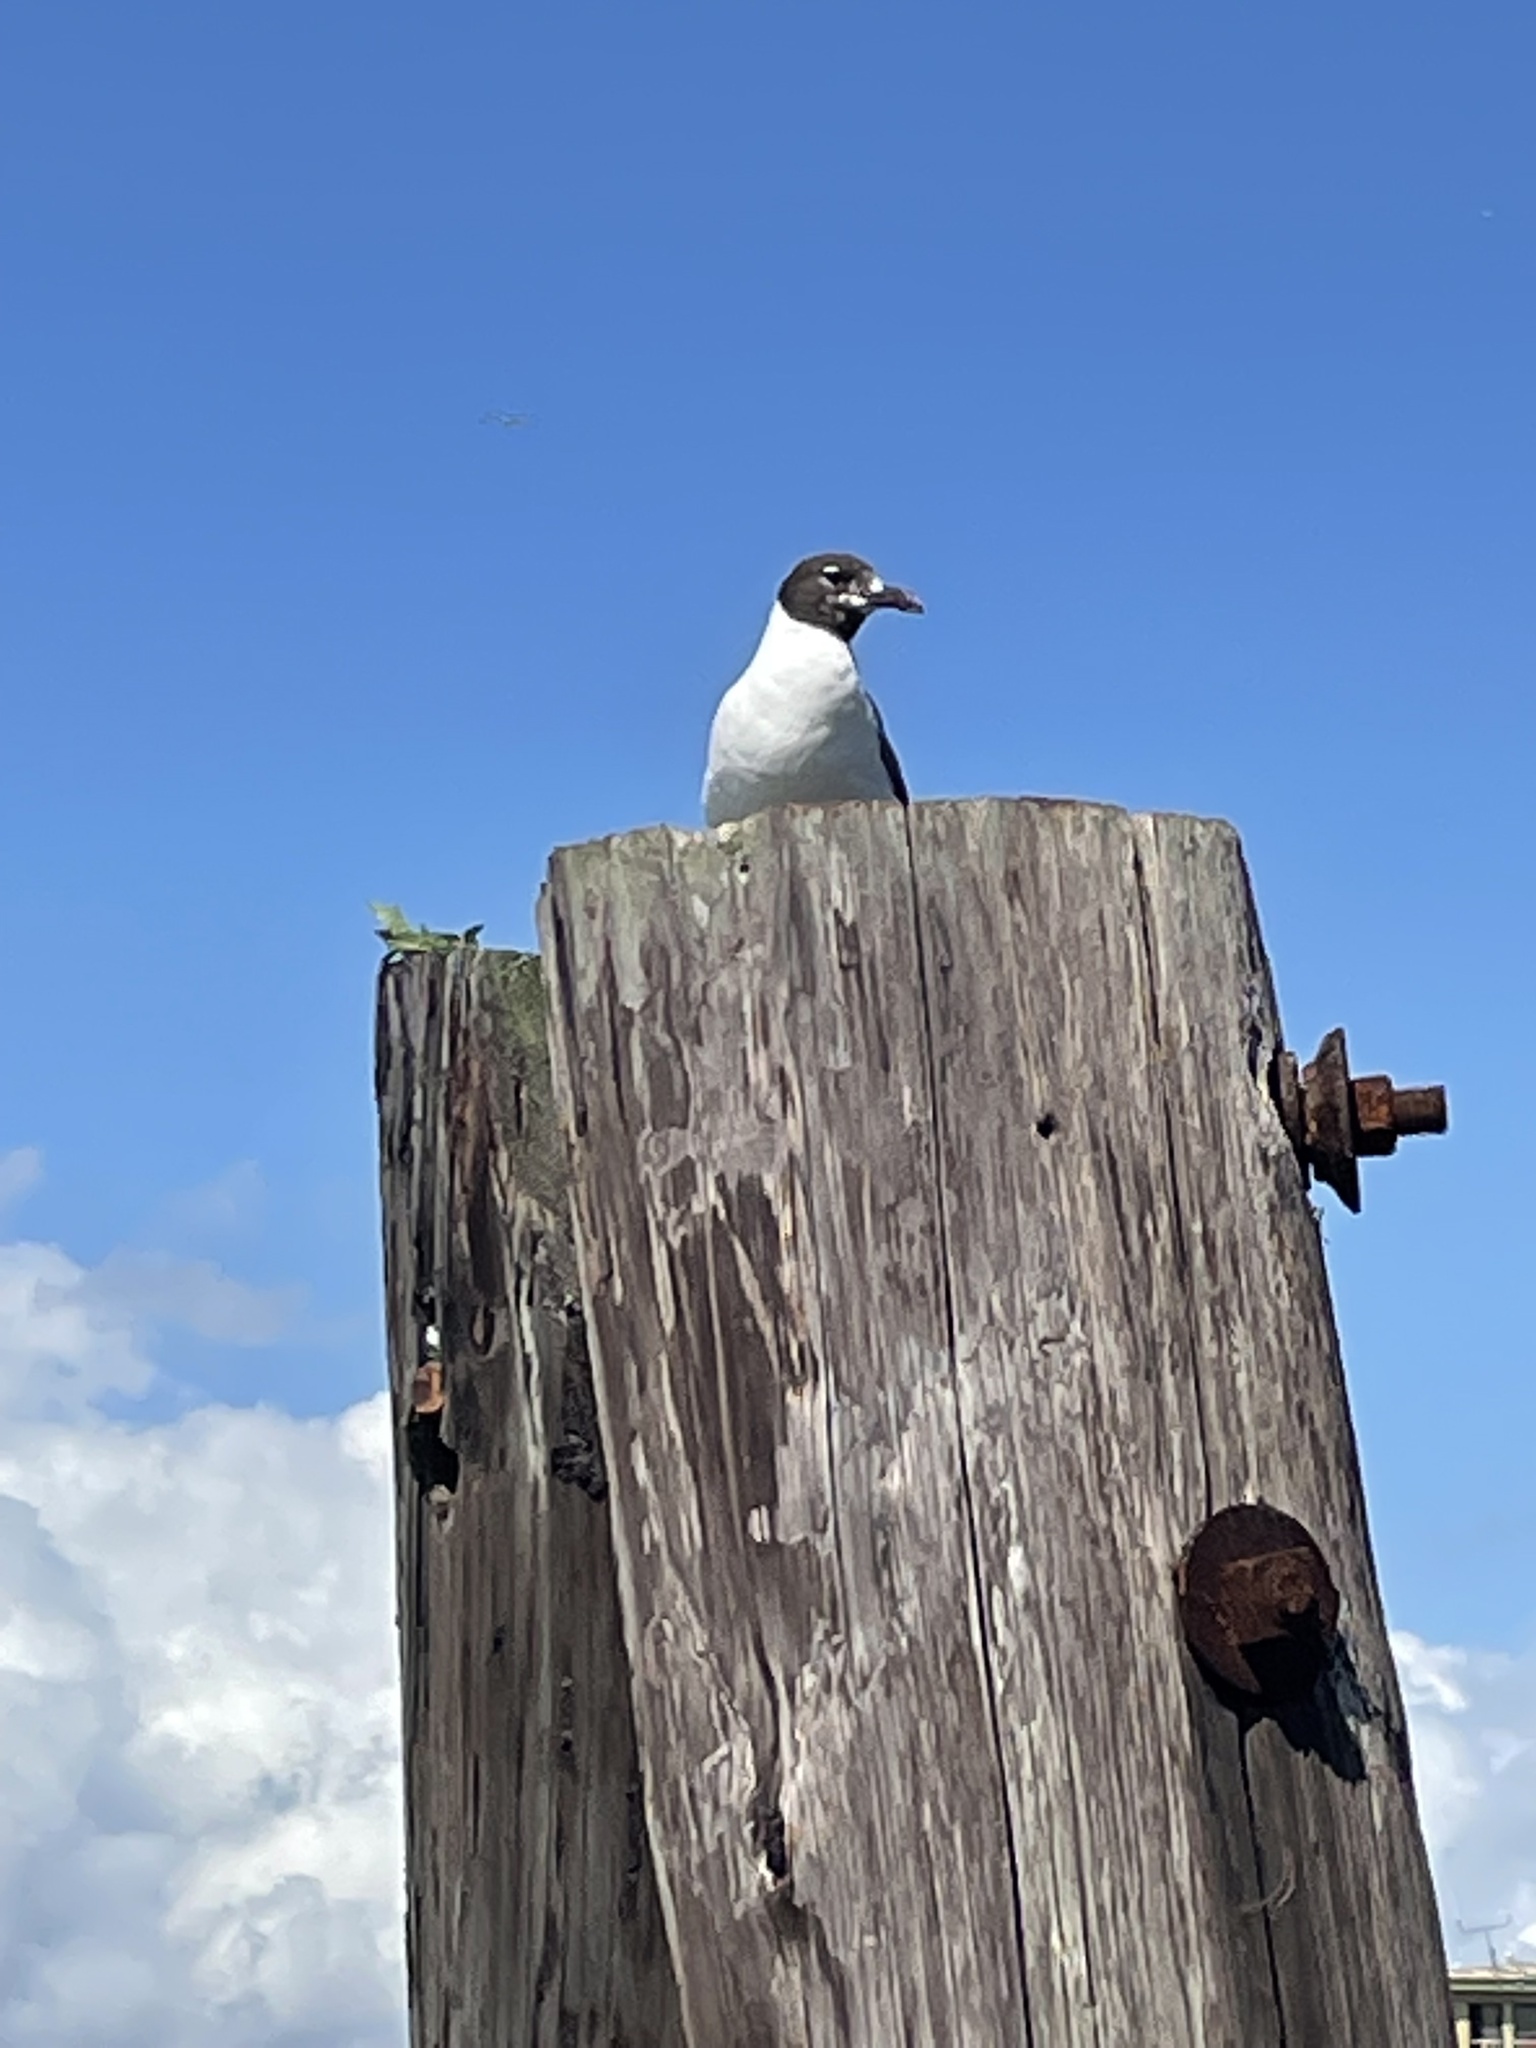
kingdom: Animalia
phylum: Chordata
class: Aves
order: Charadriiformes
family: Laridae
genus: Leucophaeus
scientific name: Leucophaeus atricilla
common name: Laughing gull
